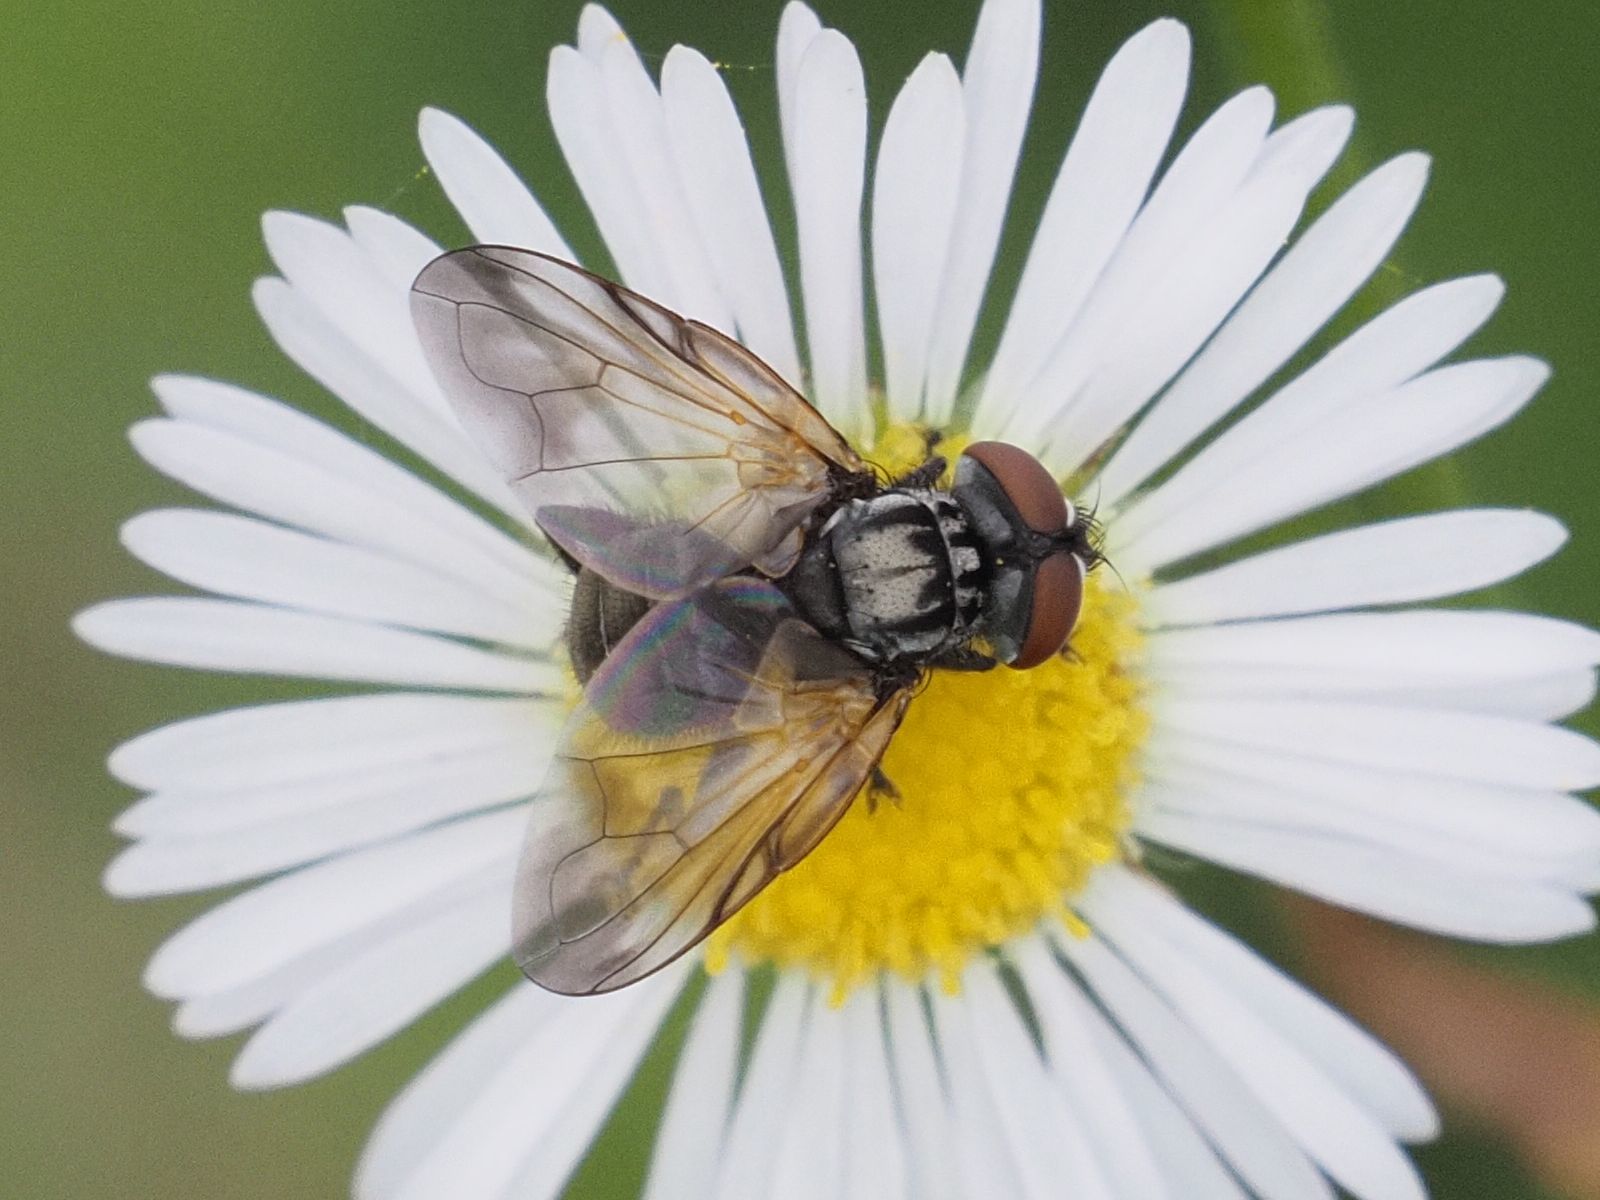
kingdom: Animalia
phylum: Arthropoda
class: Insecta
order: Diptera
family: Tachinidae
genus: Phasia
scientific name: Phasia obesa
